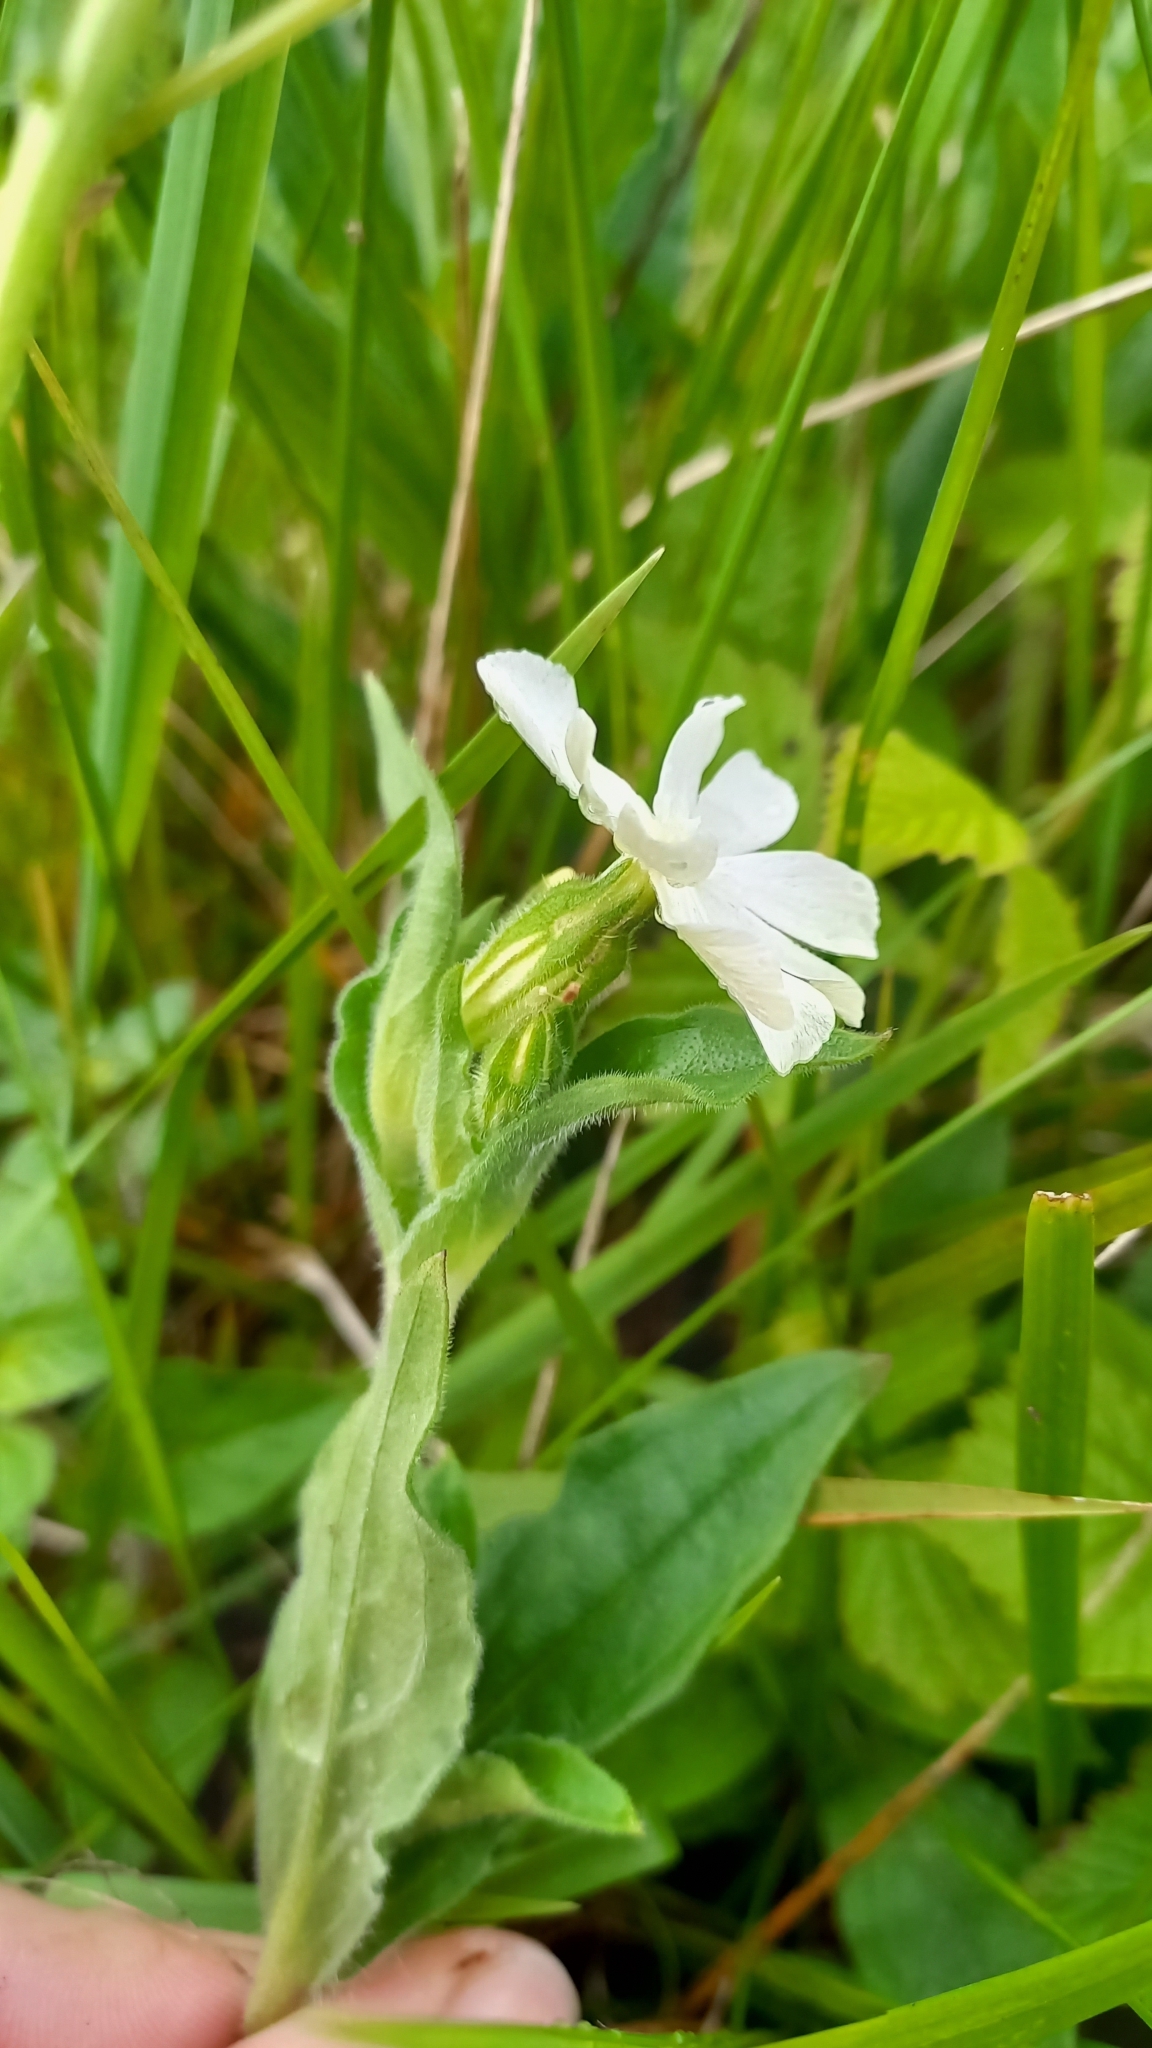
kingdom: Plantae
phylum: Tracheophyta
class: Magnoliopsida
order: Caryophyllales
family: Caryophyllaceae
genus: Silene
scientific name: Silene latifolia
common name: White campion
